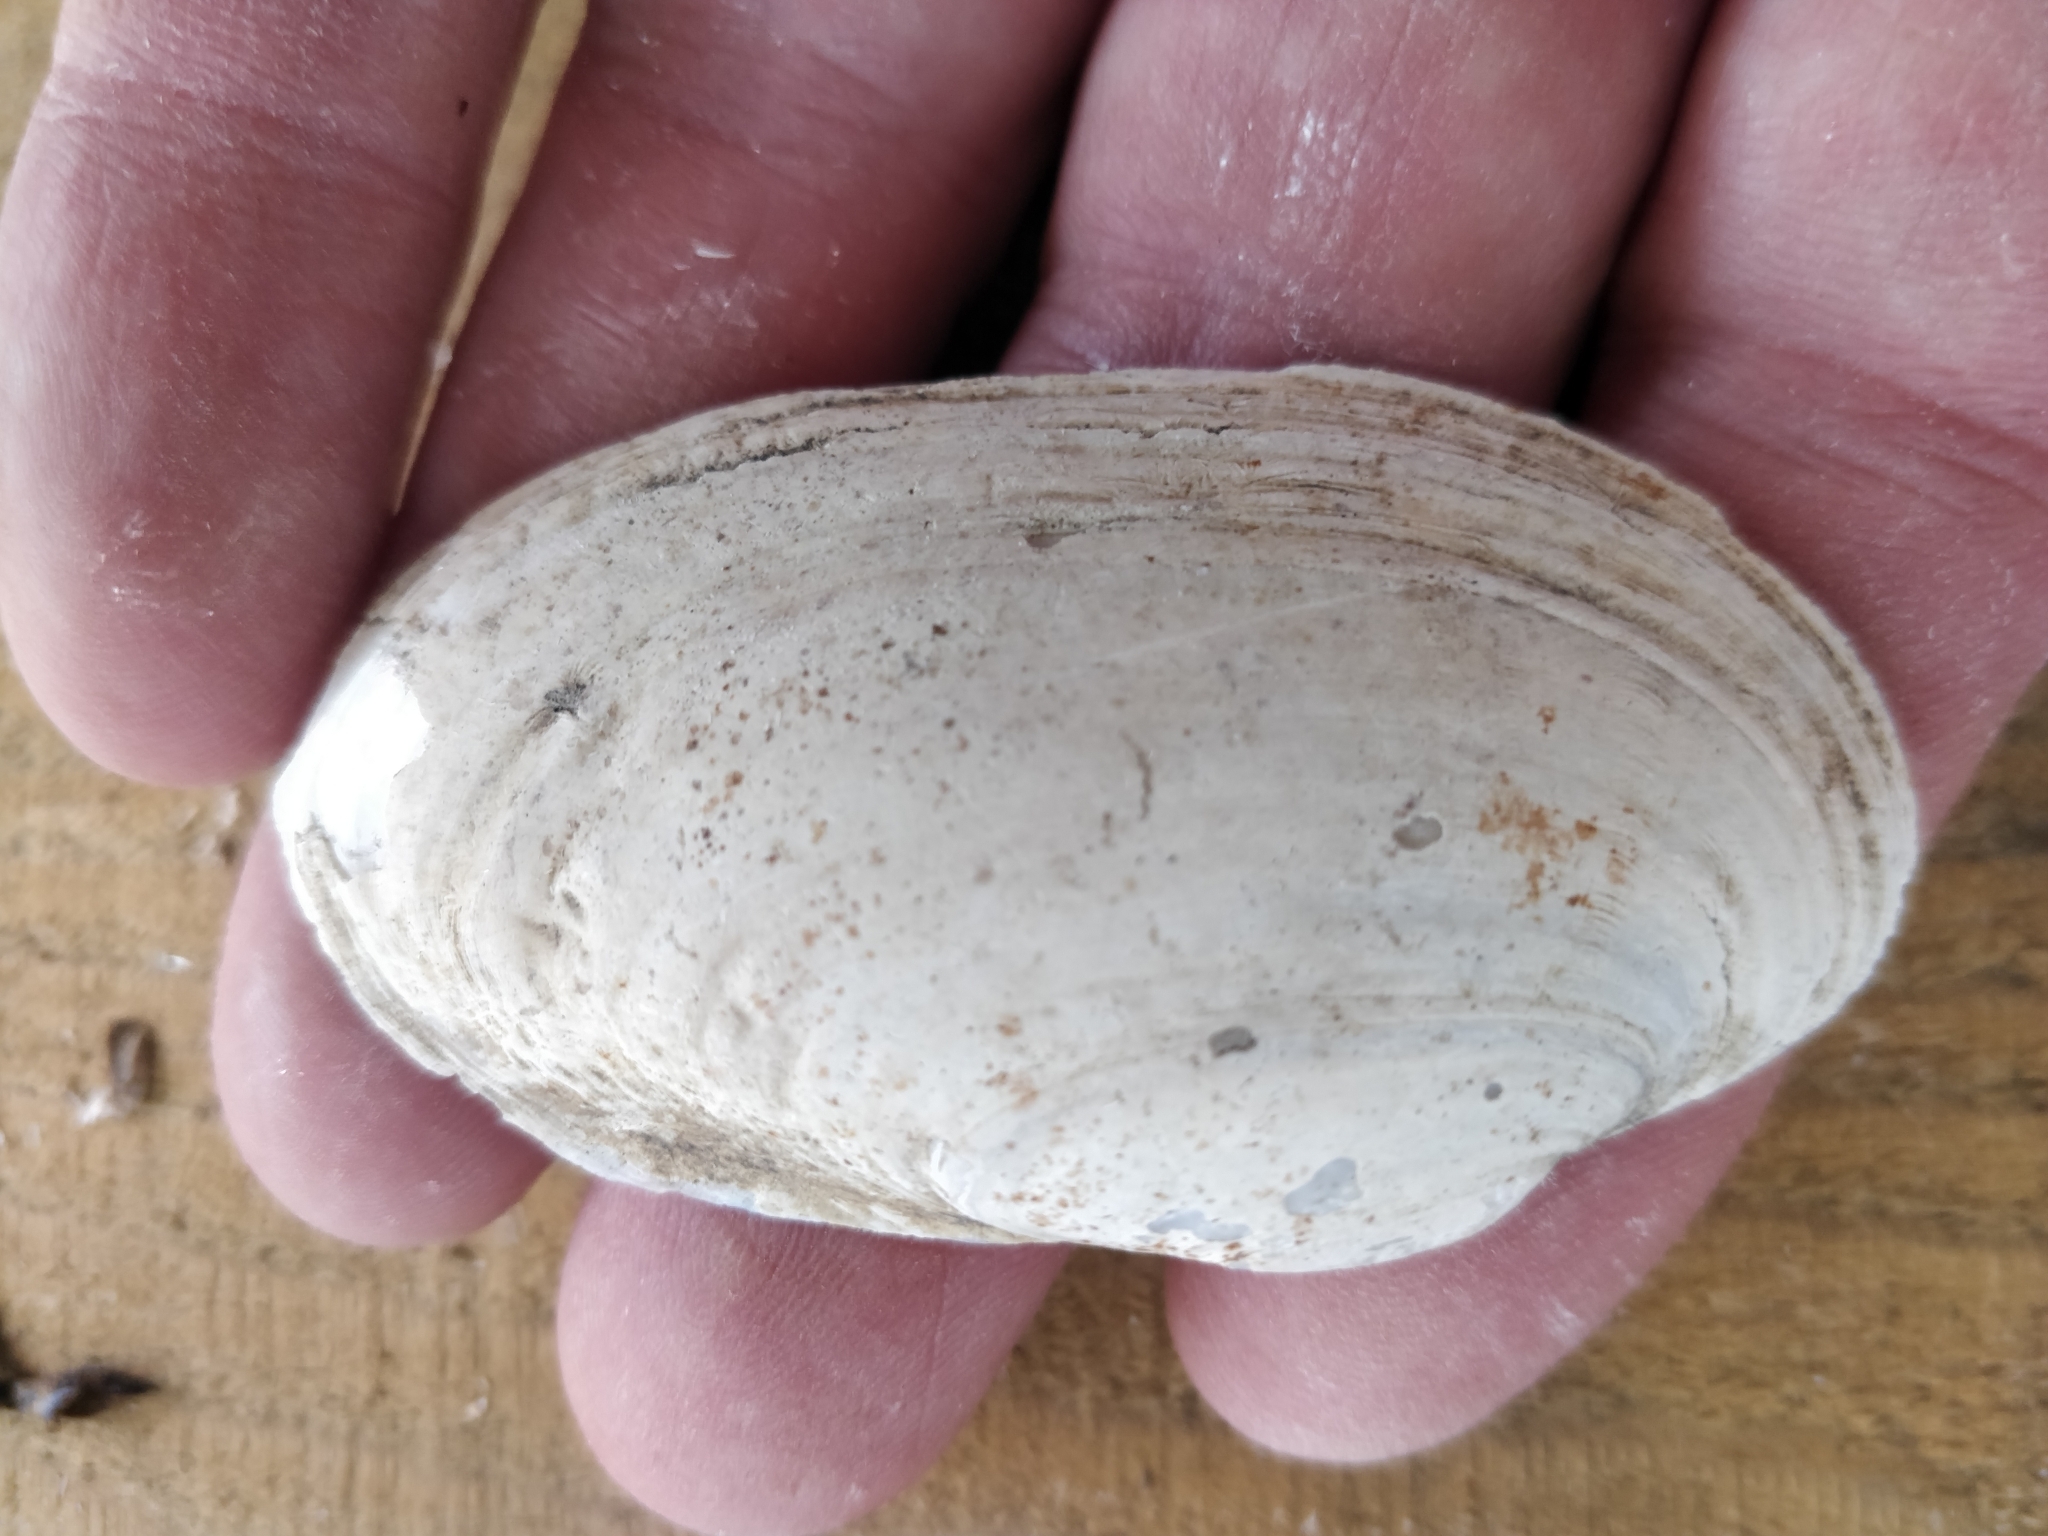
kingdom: Animalia
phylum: Mollusca
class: Bivalvia
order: Unionida
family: Unionidae
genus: Lampsilis
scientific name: Lampsilis siliquoidea
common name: Fatmucket
